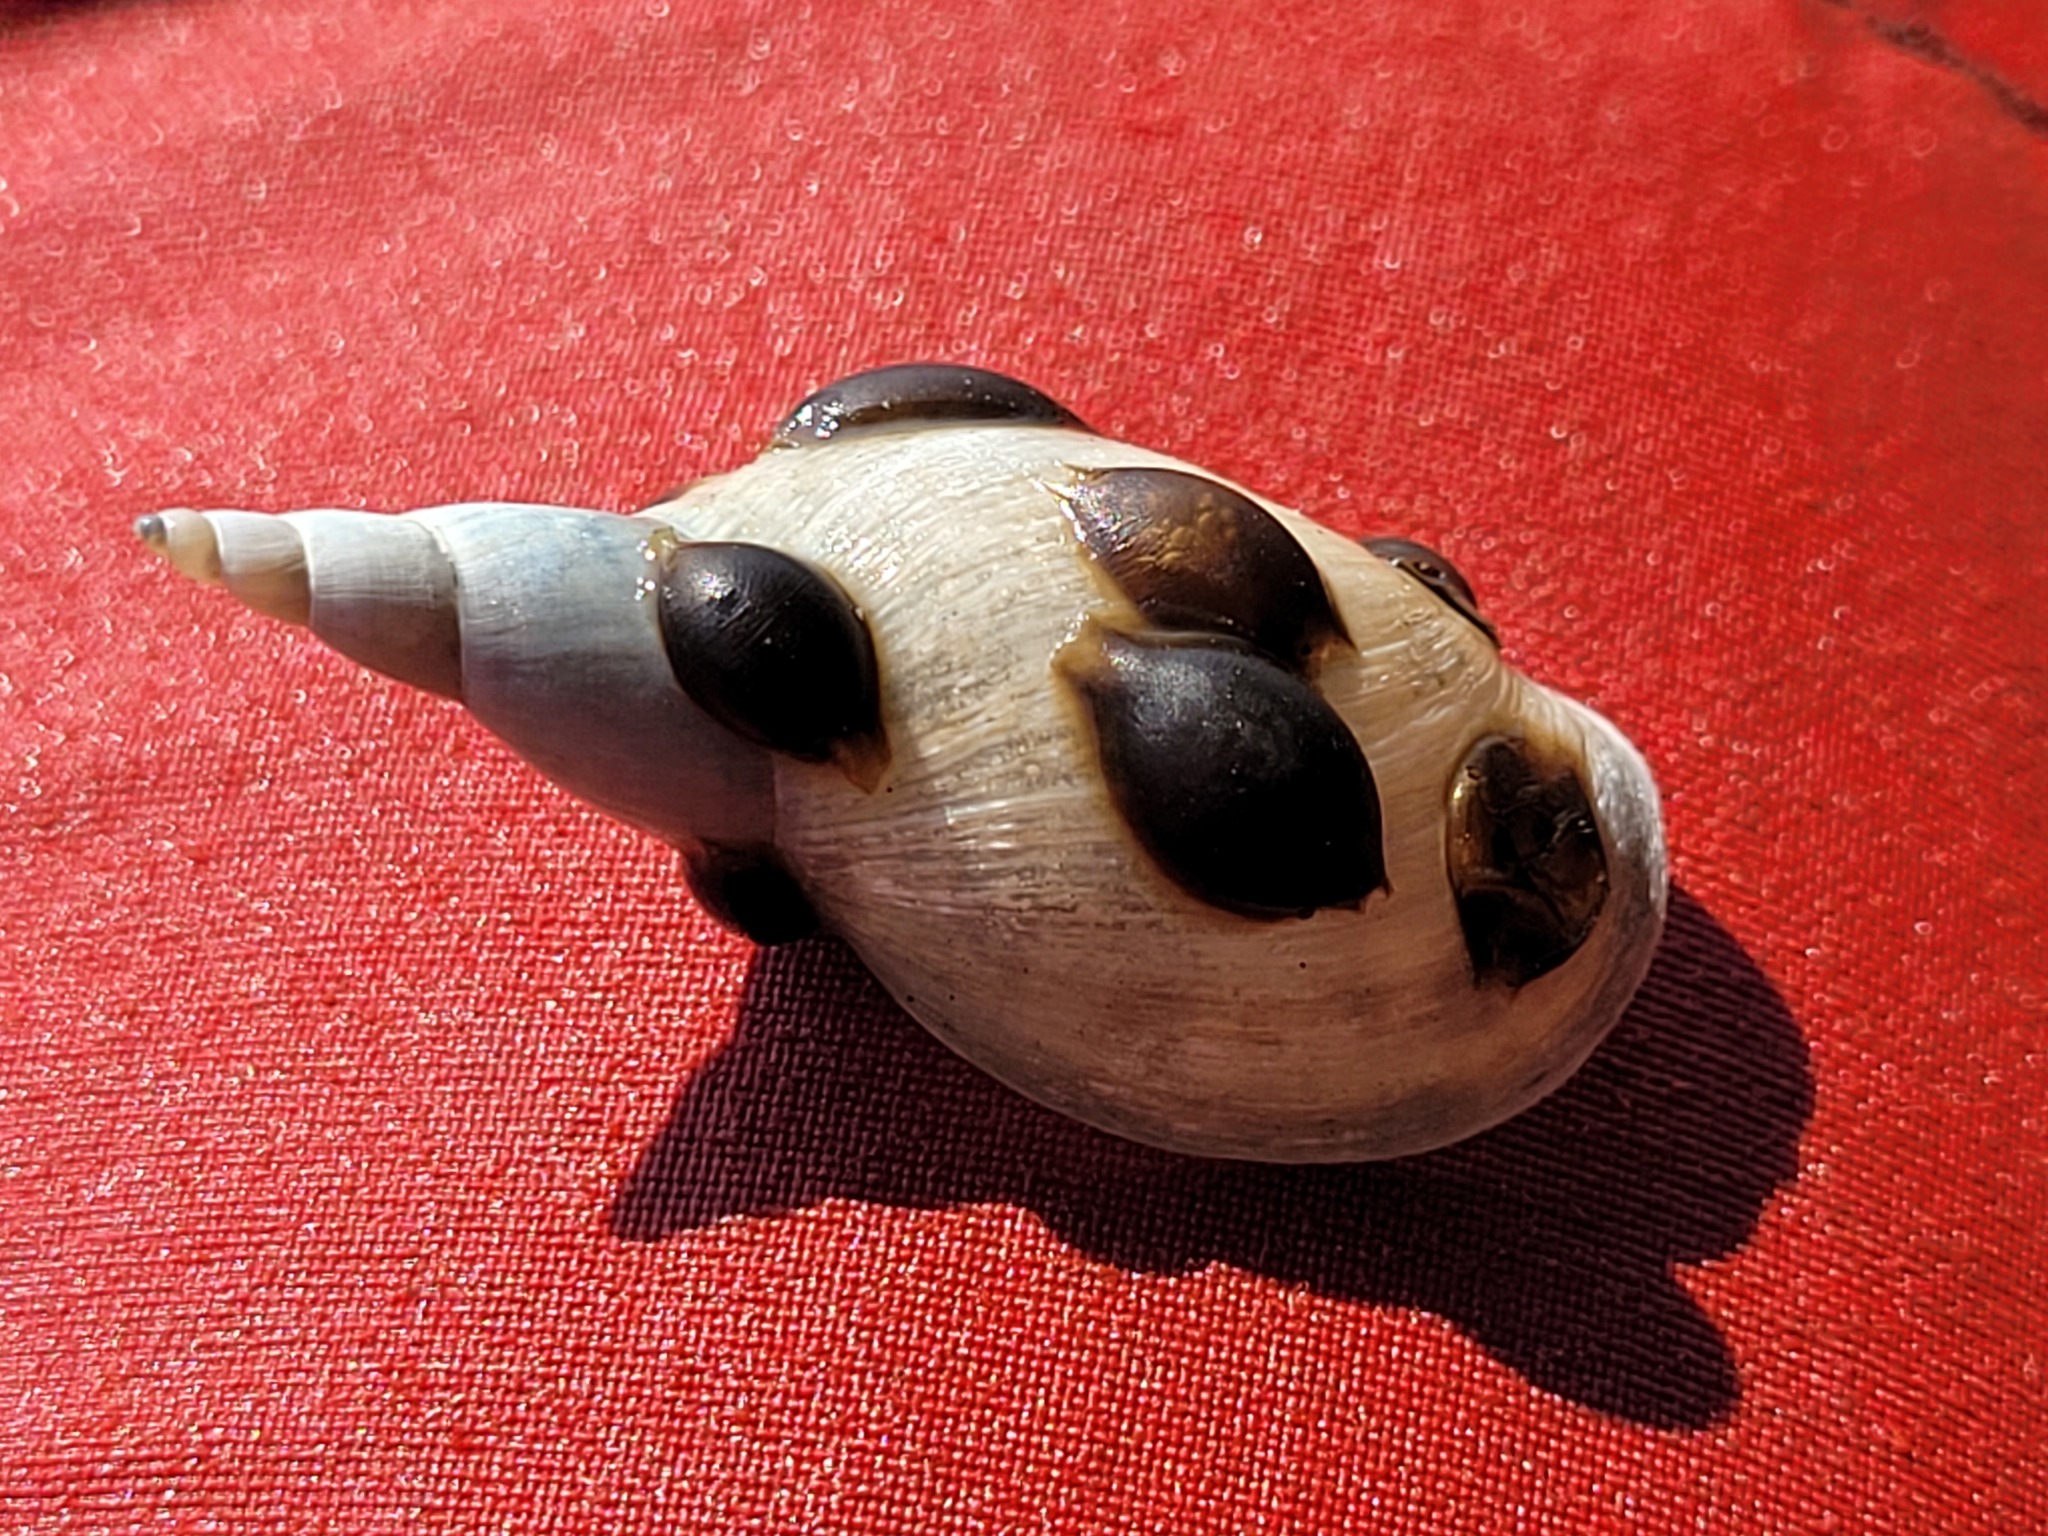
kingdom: Animalia
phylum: Mollusca
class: Gastropoda
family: Lymnaeidae
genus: Lymnaea
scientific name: Lymnaea stagnalis
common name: Great pond snail
